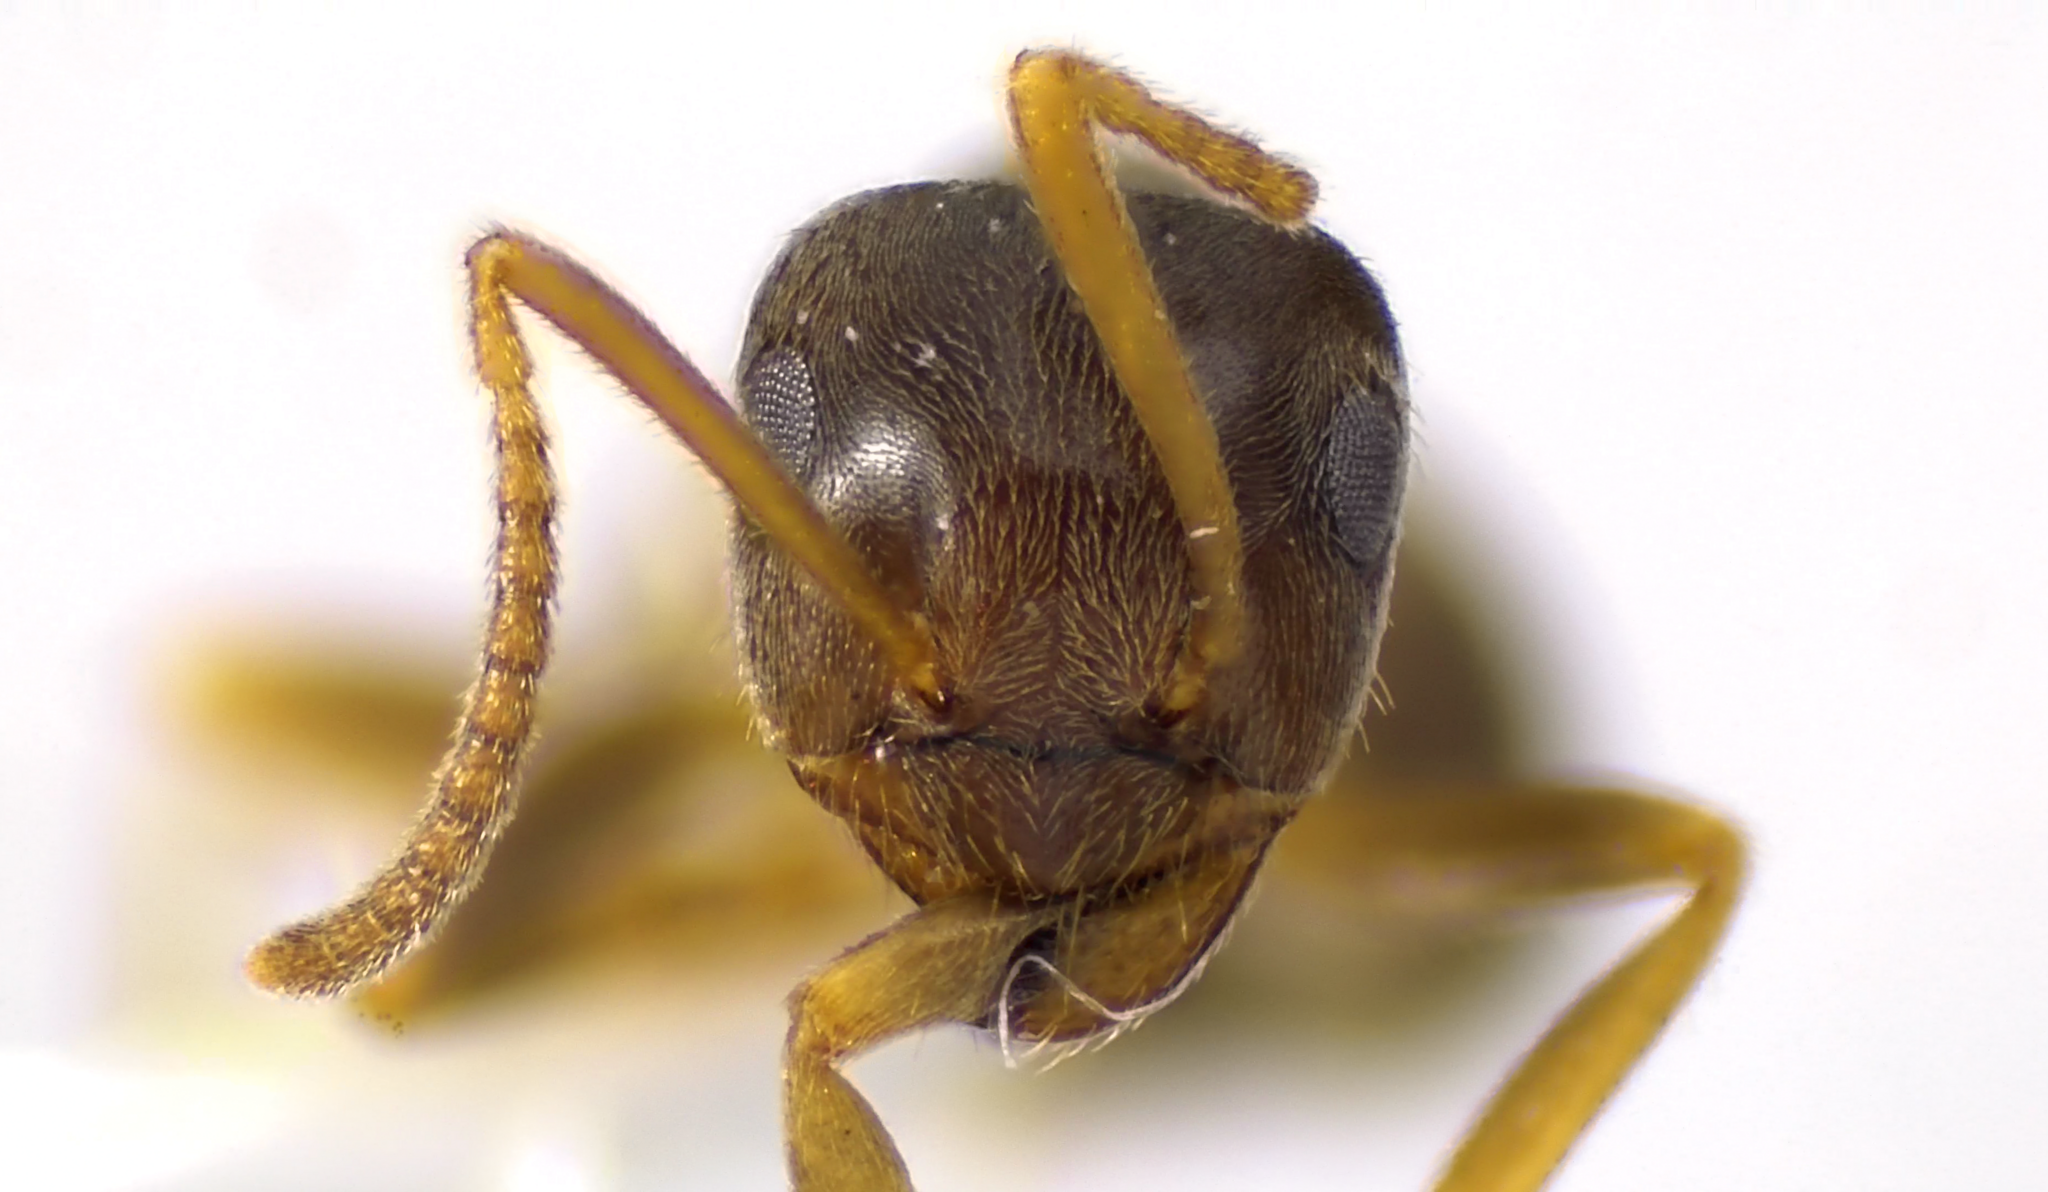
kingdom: Animalia
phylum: Arthropoda
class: Insecta
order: Hymenoptera
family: Formicidae
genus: Lasius
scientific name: Lasius neoniger
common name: Turfgrass ant
